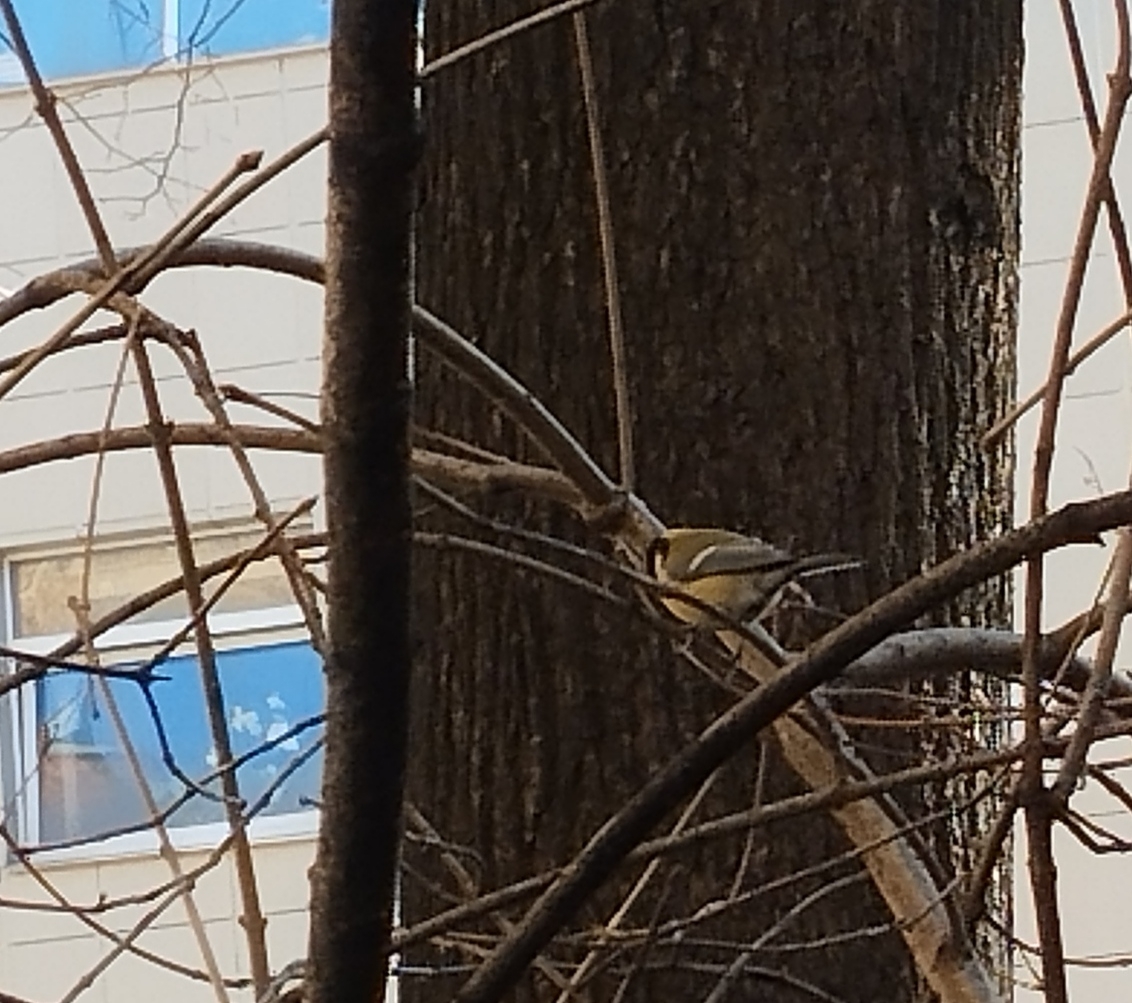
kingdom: Animalia
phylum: Chordata
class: Aves
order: Passeriformes
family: Paridae
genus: Parus
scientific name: Parus major
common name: Great tit
